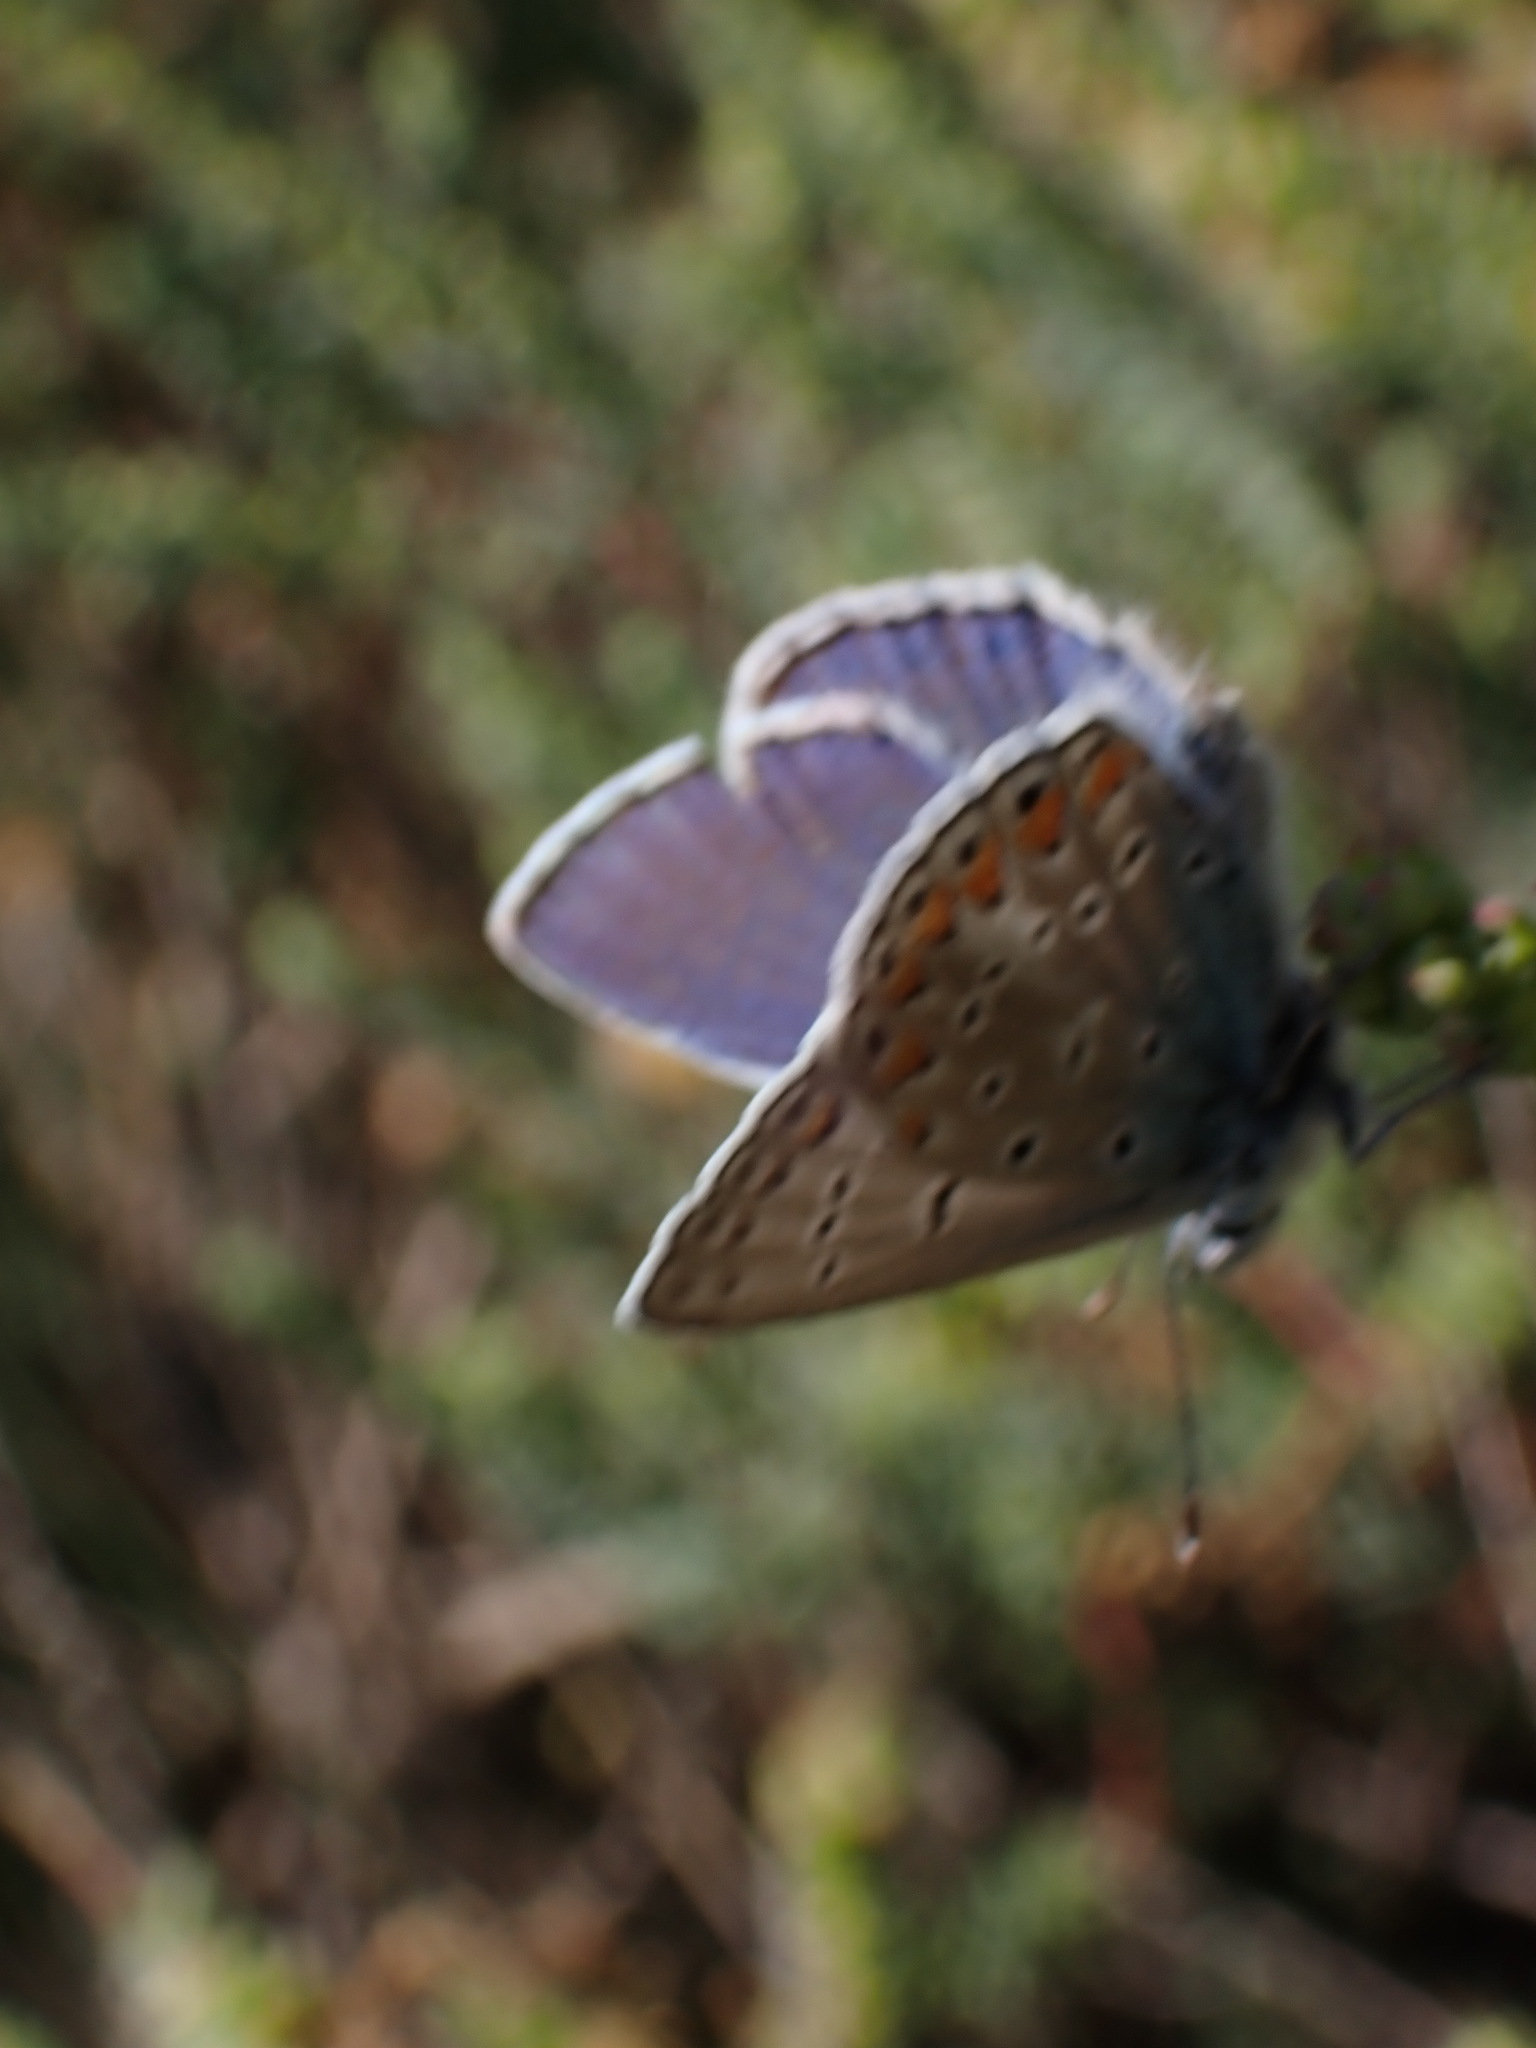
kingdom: Animalia
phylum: Arthropoda
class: Insecta
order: Lepidoptera
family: Lycaenidae
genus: Polyommatus
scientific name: Polyommatus icarus
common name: Common blue
